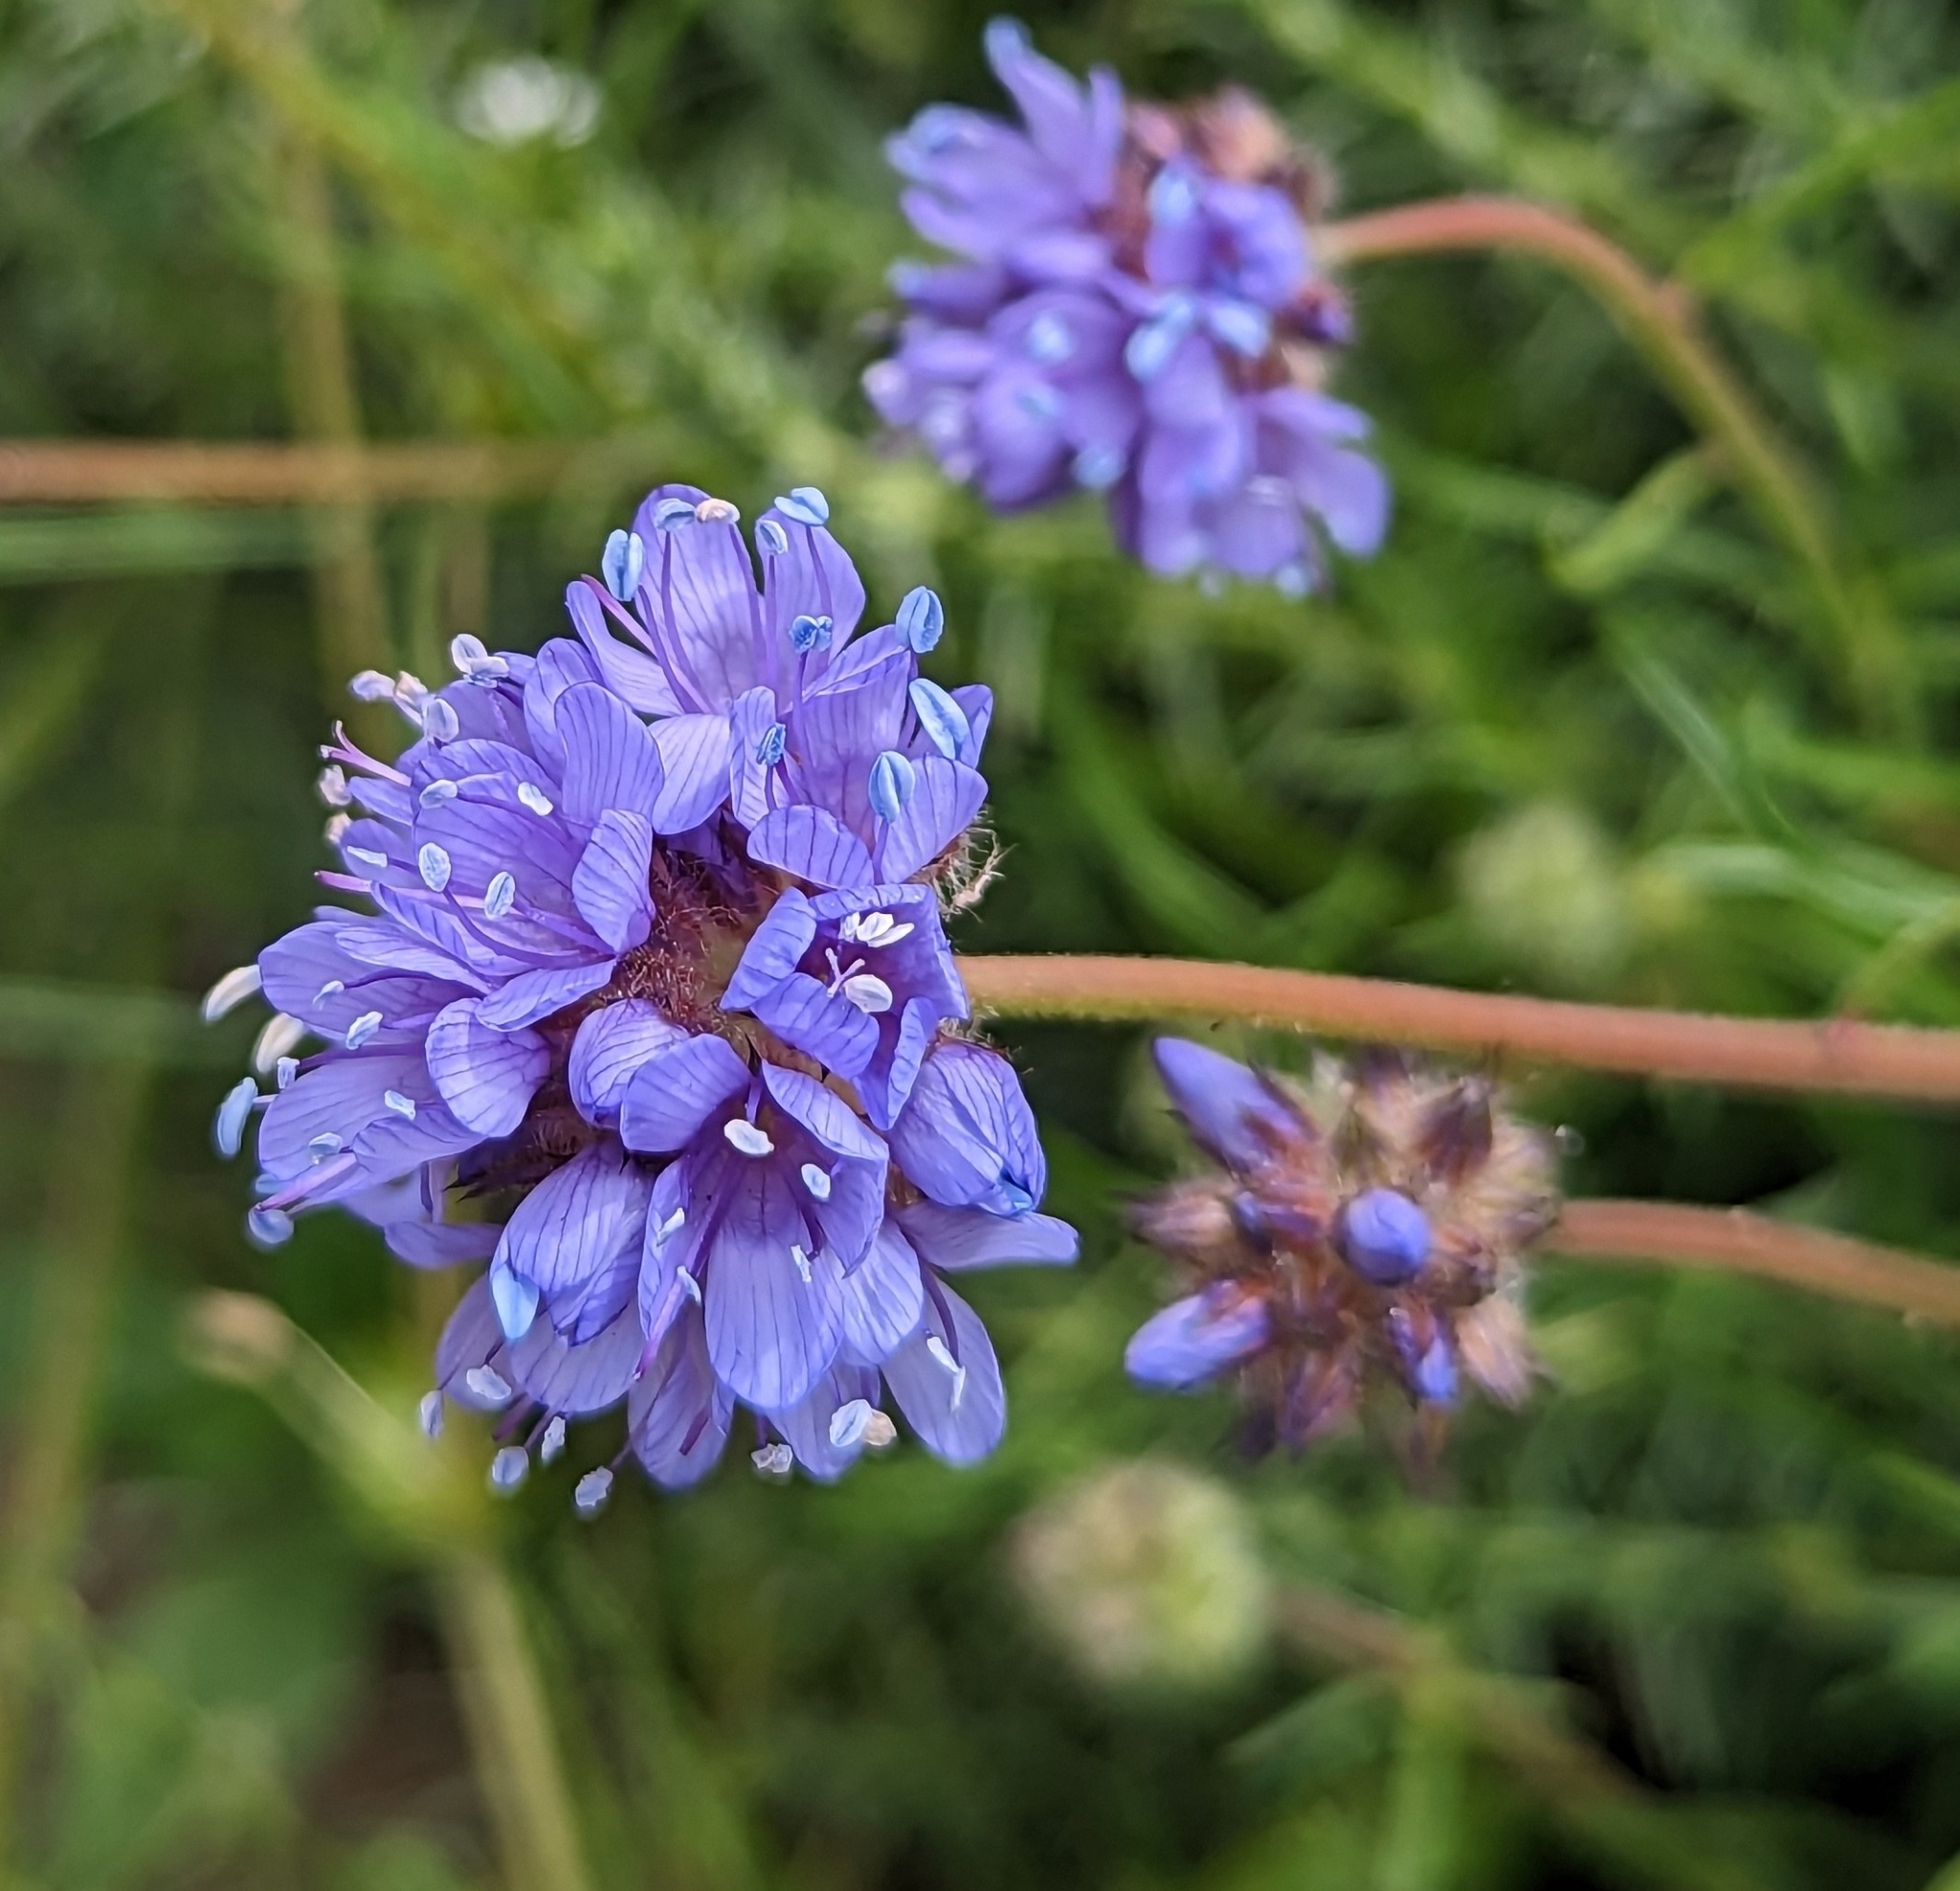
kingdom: Plantae
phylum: Tracheophyta
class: Magnoliopsida
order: Ericales
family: Polemoniaceae
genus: Gilia
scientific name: Gilia capitata
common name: Bluehead gilia
